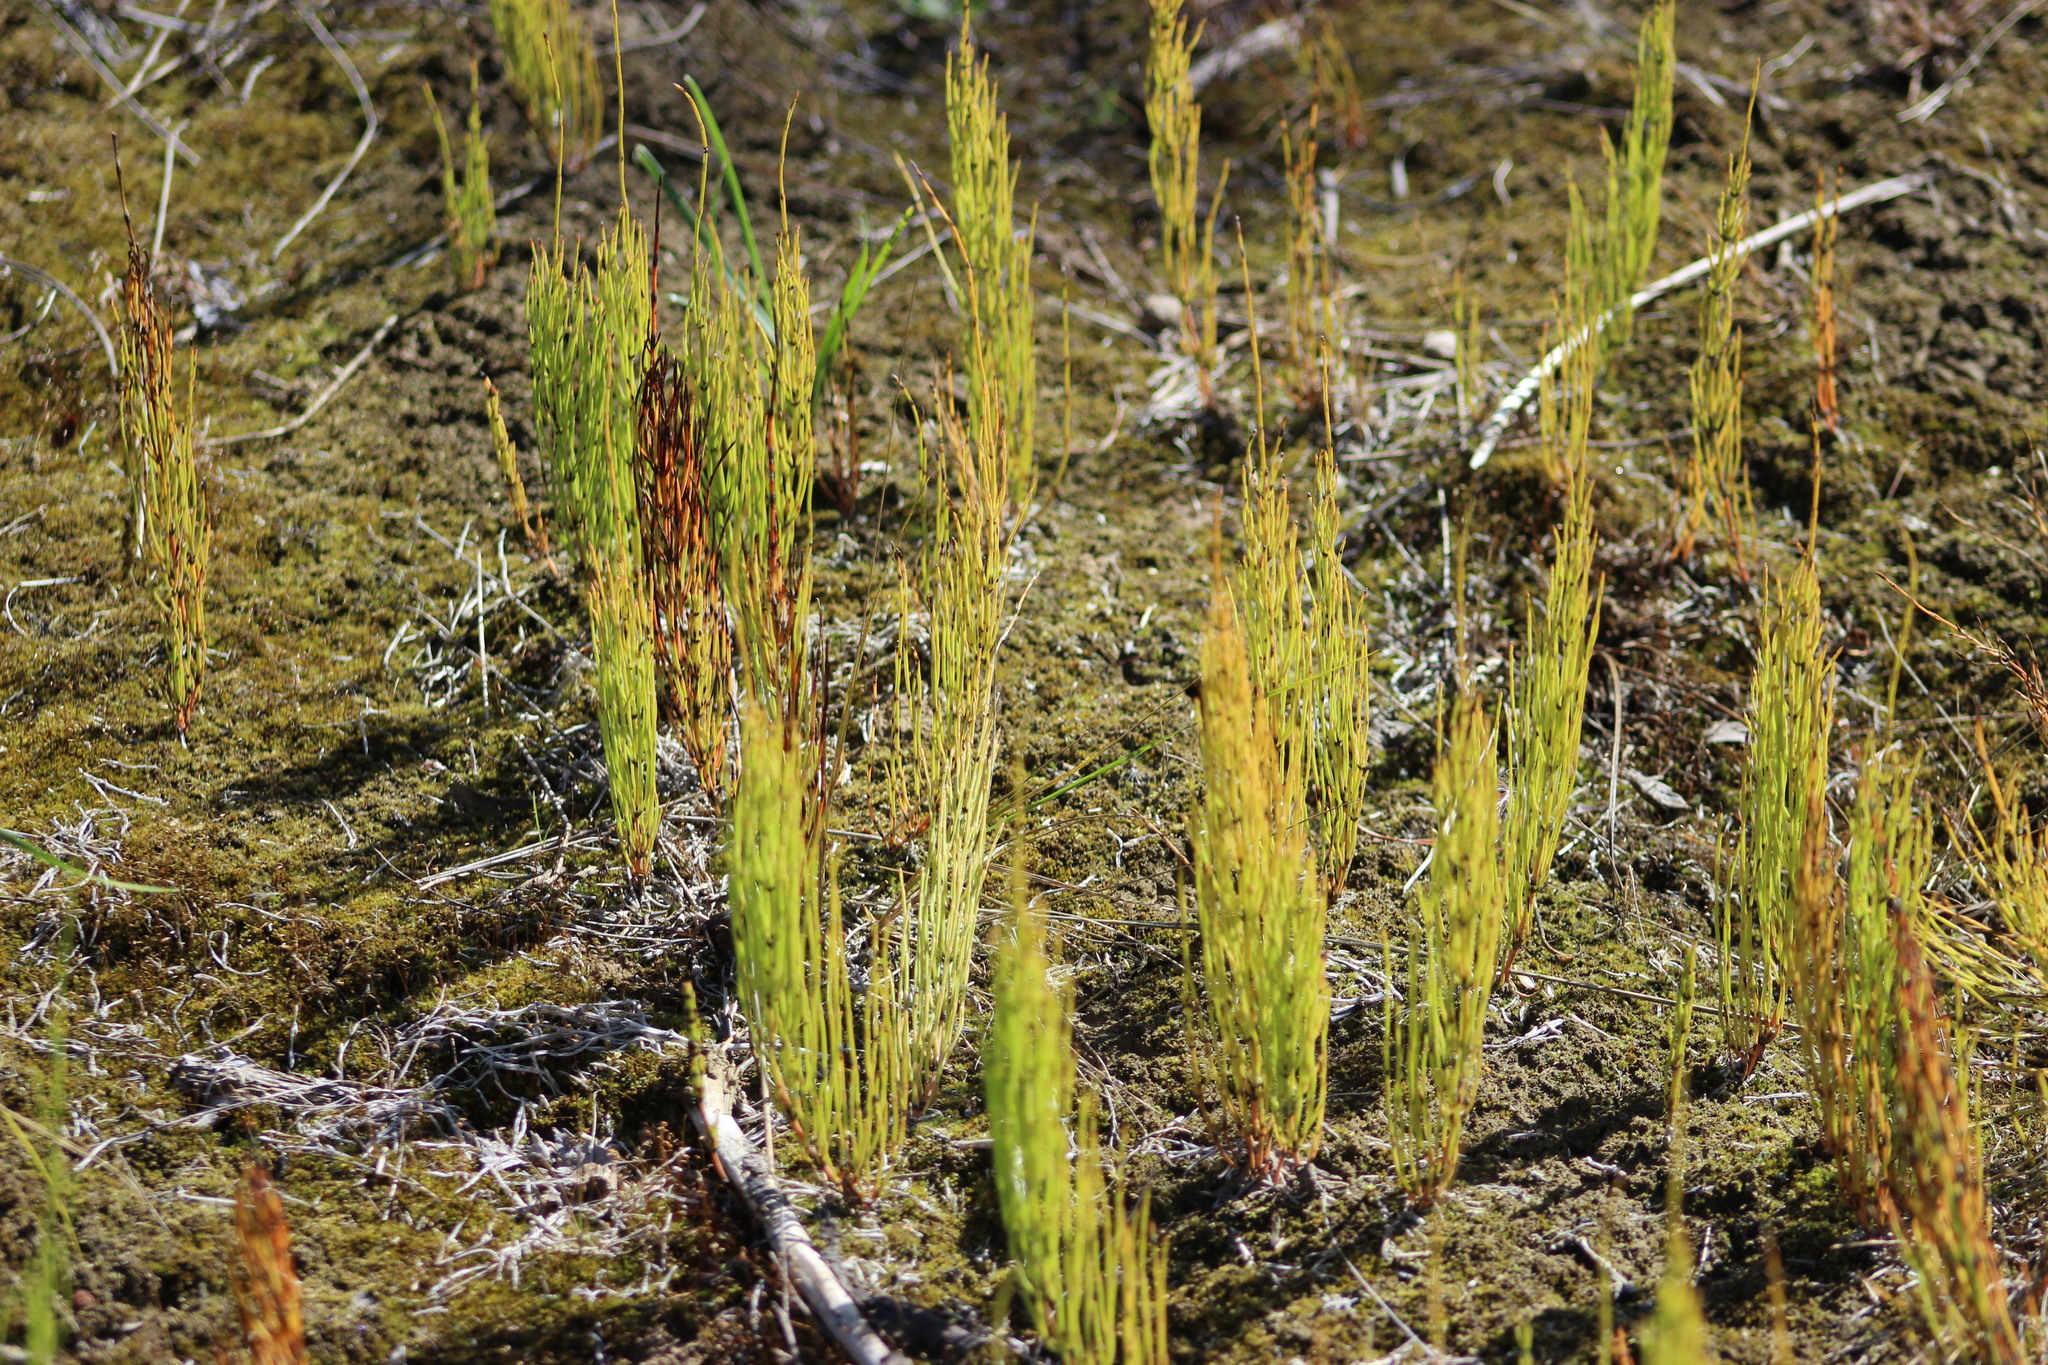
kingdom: Plantae
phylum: Tracheophyta
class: Polypodiopsida
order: Equisetales
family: Equisetaceae
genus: Equisetum
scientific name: Equisetum arvense
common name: Field horsetail
